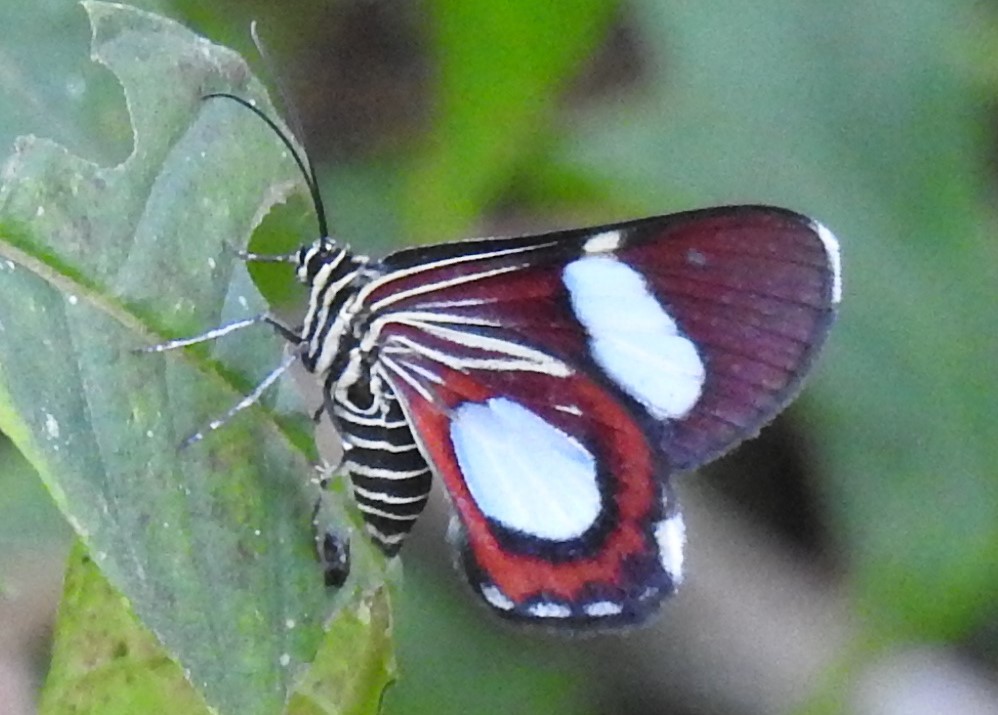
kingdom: Animalia
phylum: Arthropoda
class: Insecta
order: Lepidoptera
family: Geometridae
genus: Trocherateina
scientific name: Trocherateina specularia
